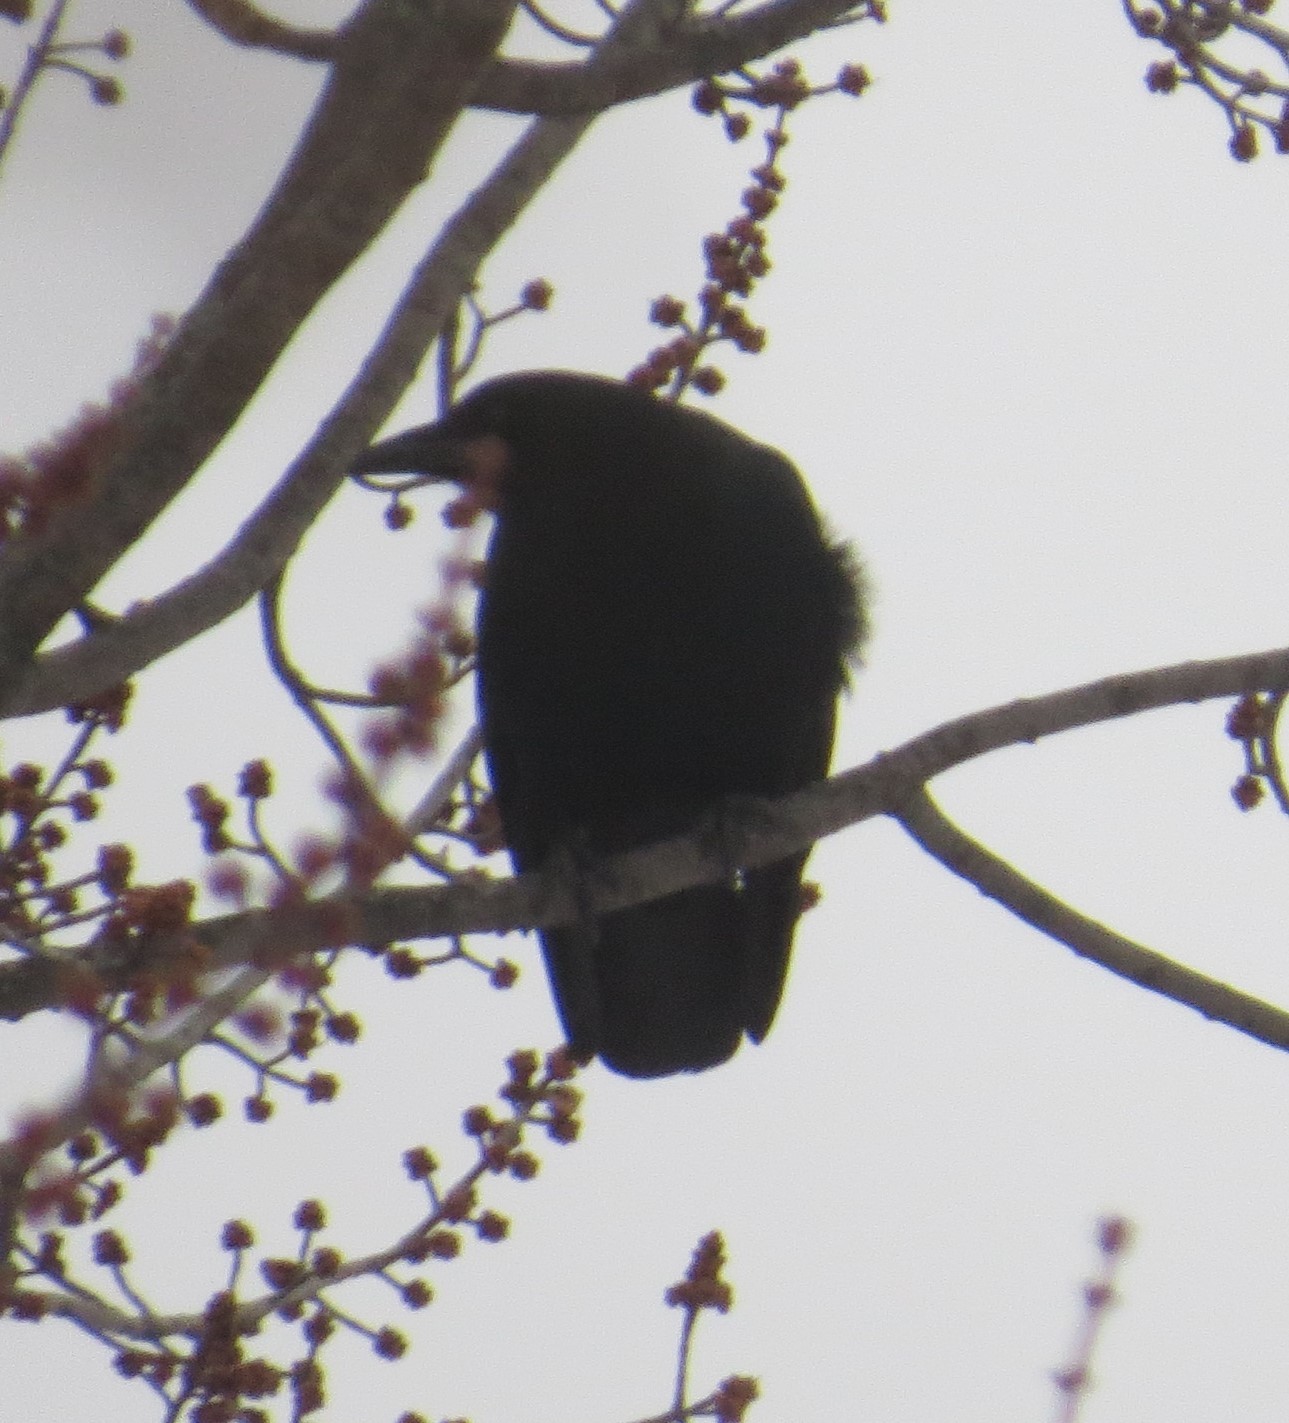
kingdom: Animalia
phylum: Chordata
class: Aves
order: Passeriformes
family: Corvidae
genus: Corvus
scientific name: Corvus brachyrhynchos
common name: American crow
